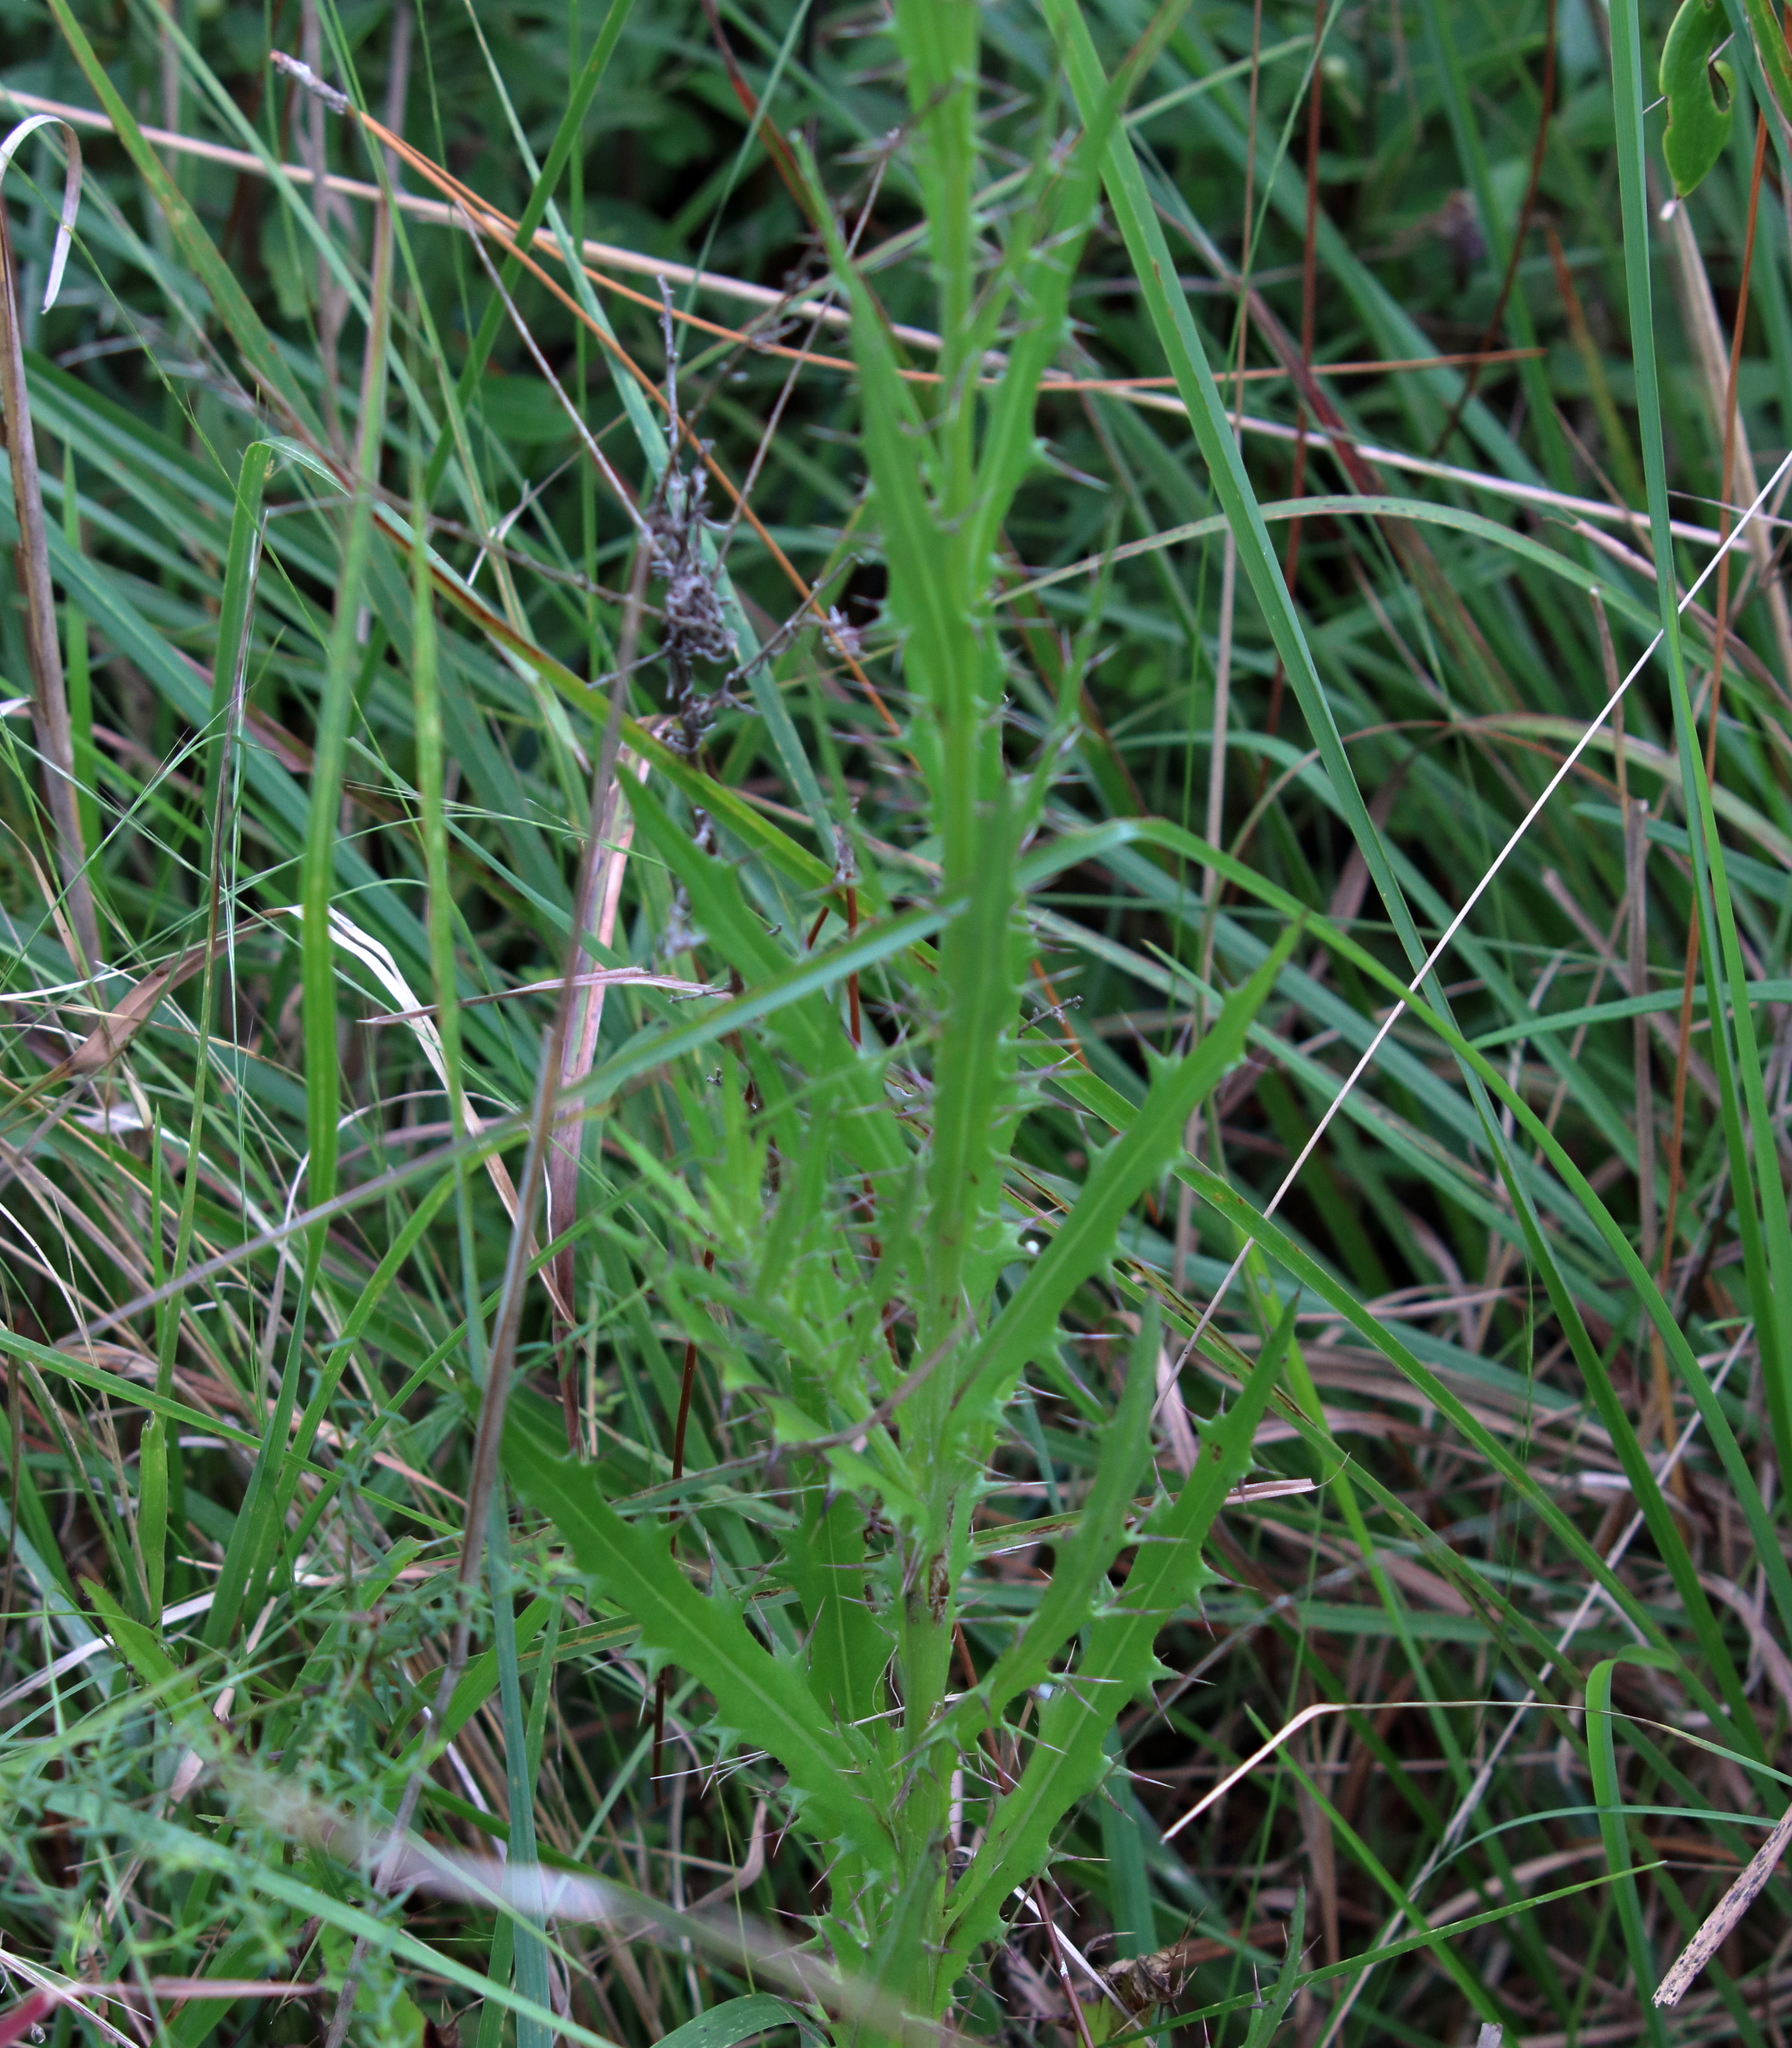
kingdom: Plantae
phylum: Tracheophyta
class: Magnoliopsida
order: Asterales
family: Asteraceae
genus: Cirsium
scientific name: Cirsium lecontei
